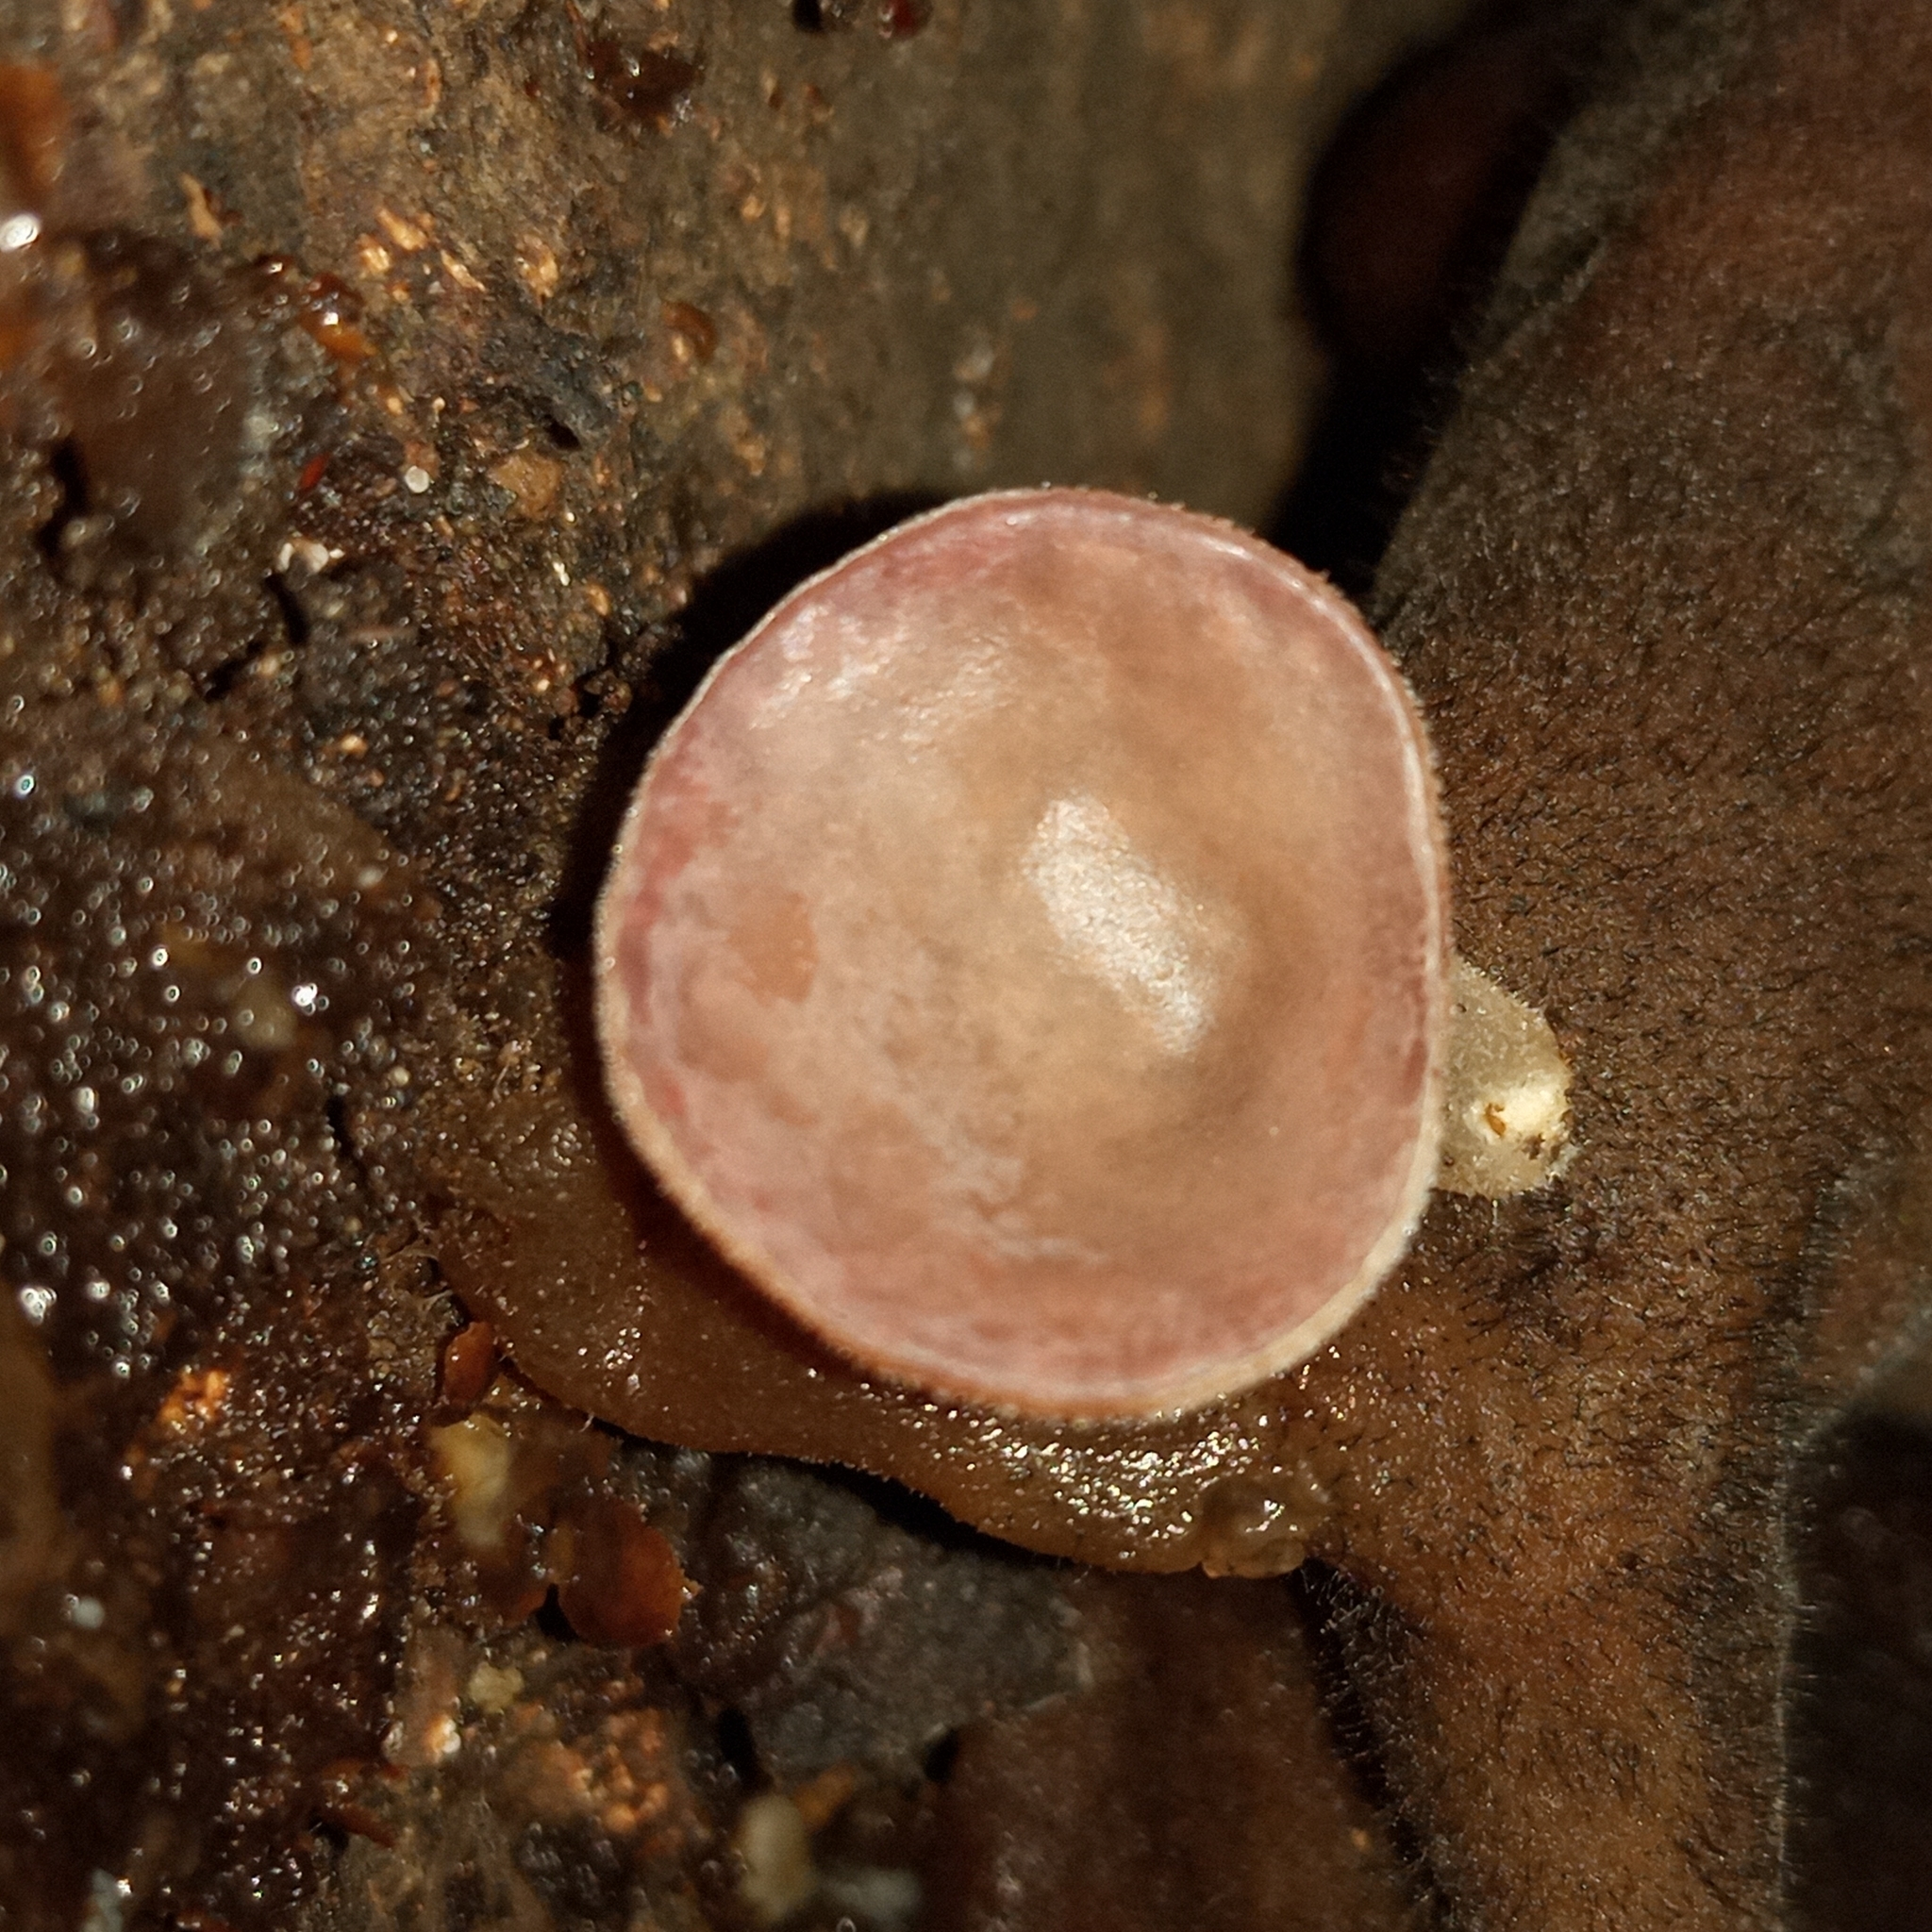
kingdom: Fungi
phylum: Basidiomycota
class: Agaricomycetes
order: Auriculariales
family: Auriculariaceae
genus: Auricularia
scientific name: Auricularia nigricans
